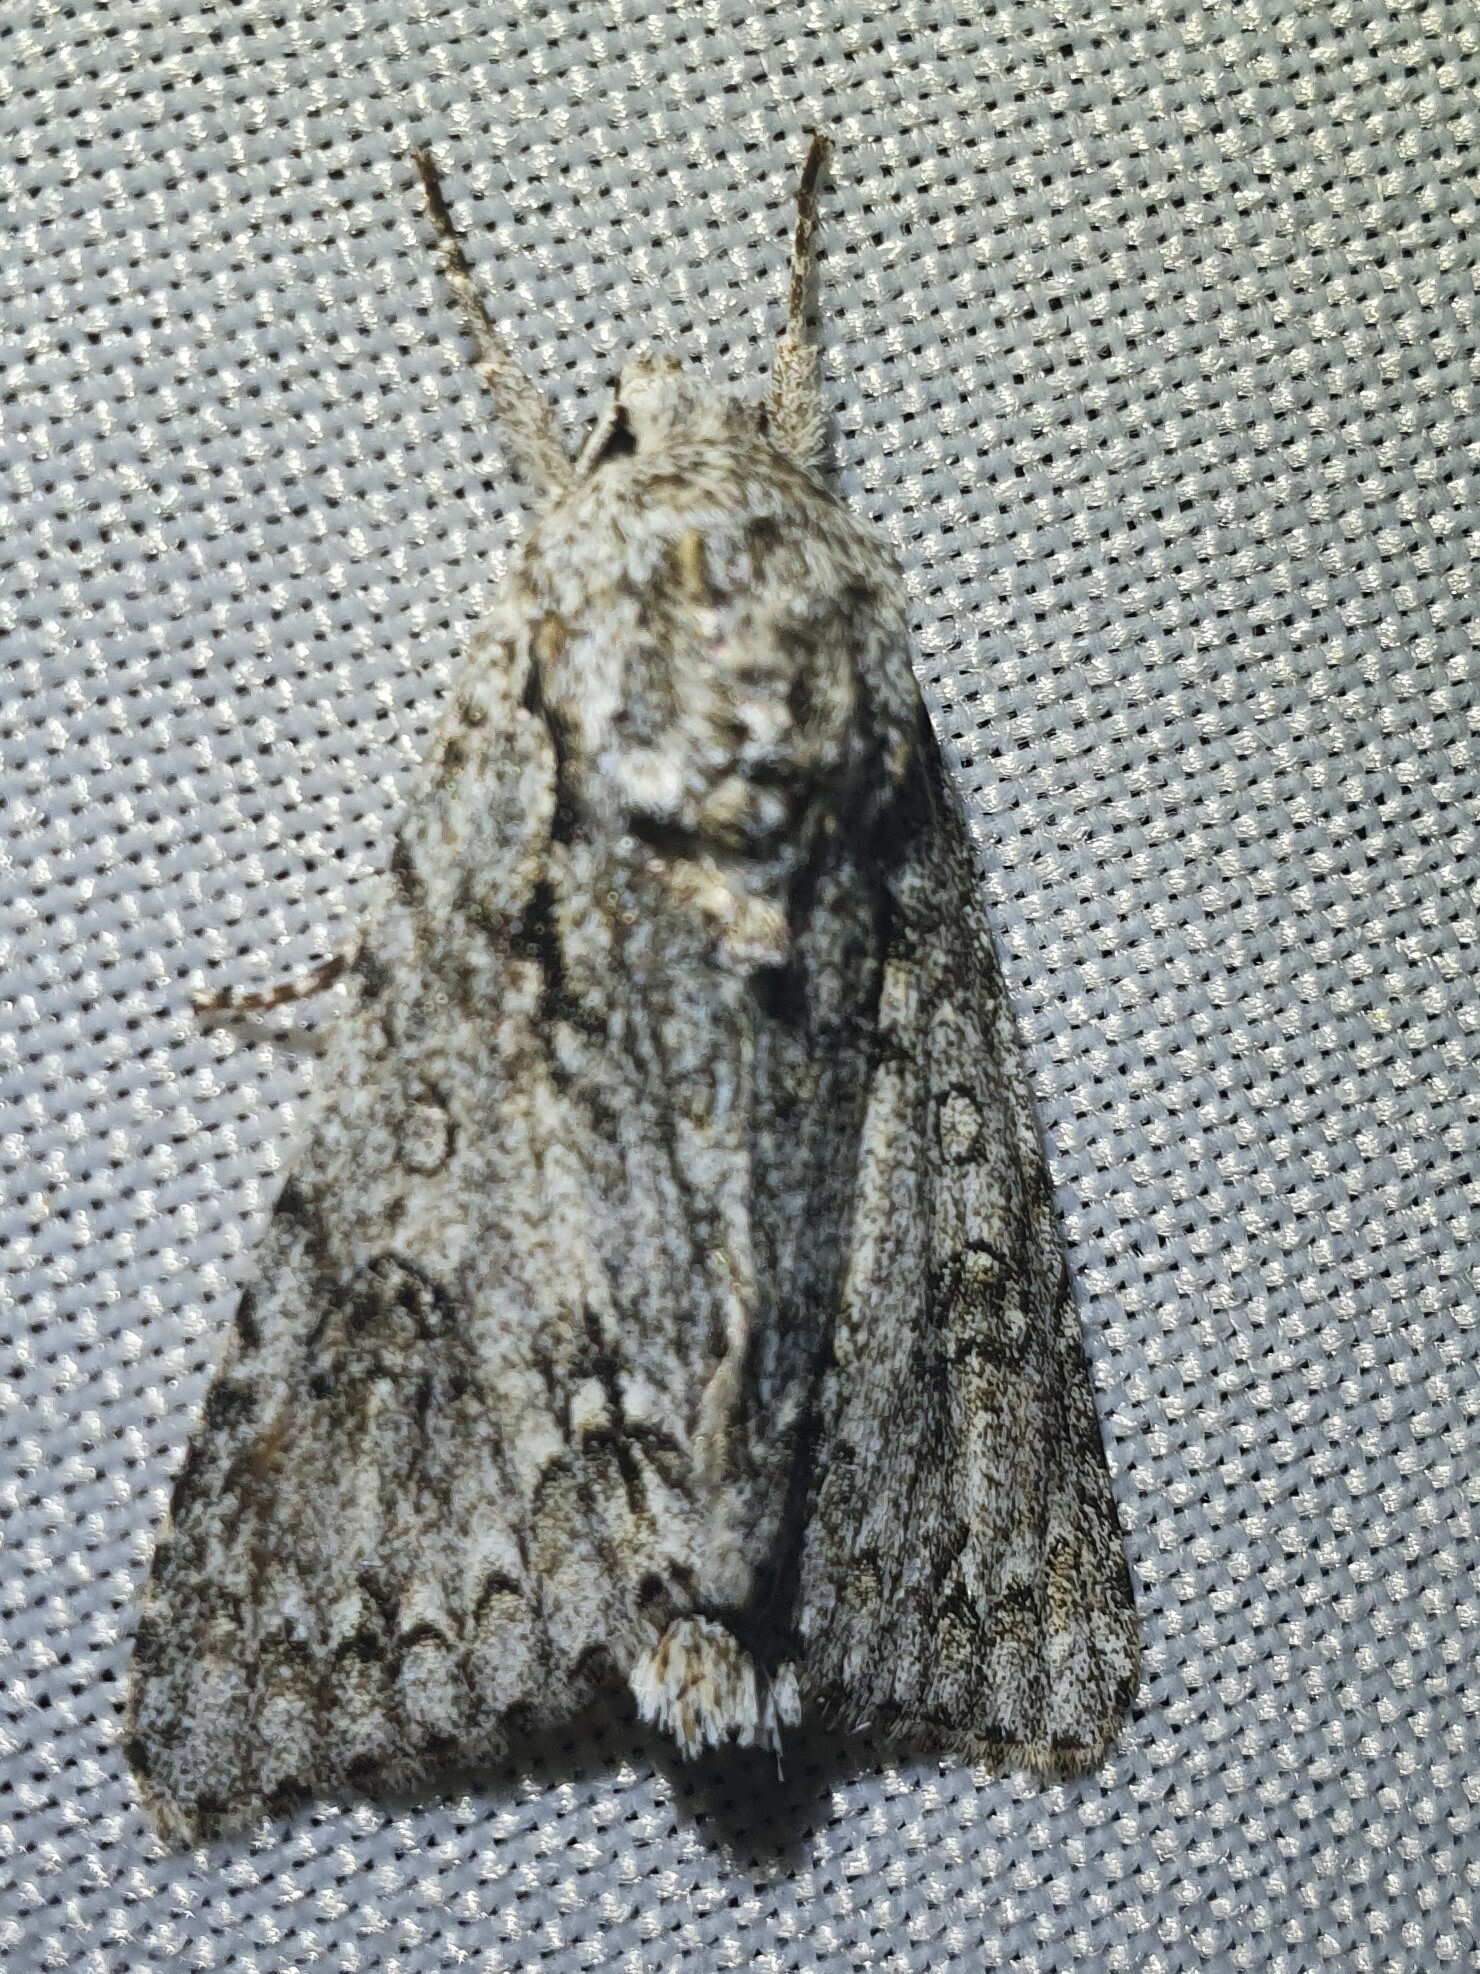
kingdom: Animalia
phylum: Arthropoda
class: Insecta
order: Lepidoptera
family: Noctuidae
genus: Acronicta
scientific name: Acronicta aceris
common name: Sycamore
